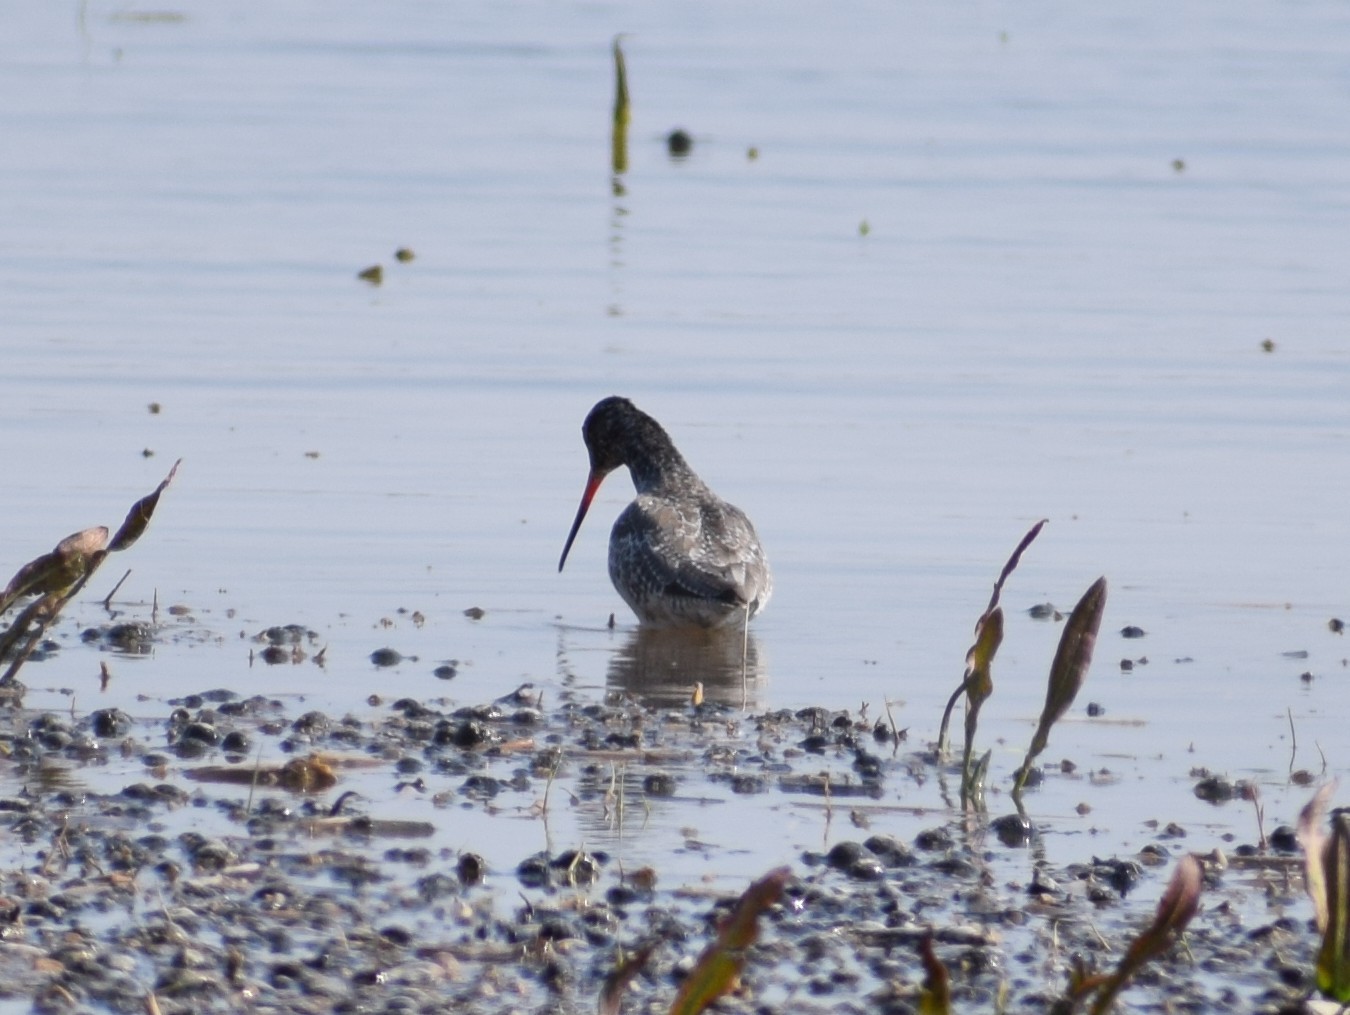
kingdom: Animalia
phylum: Chordata
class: Aves
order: Charadriiformes
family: Scolopacidae
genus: Tringa
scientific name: Tringa erythropus
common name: Spotted redshank
